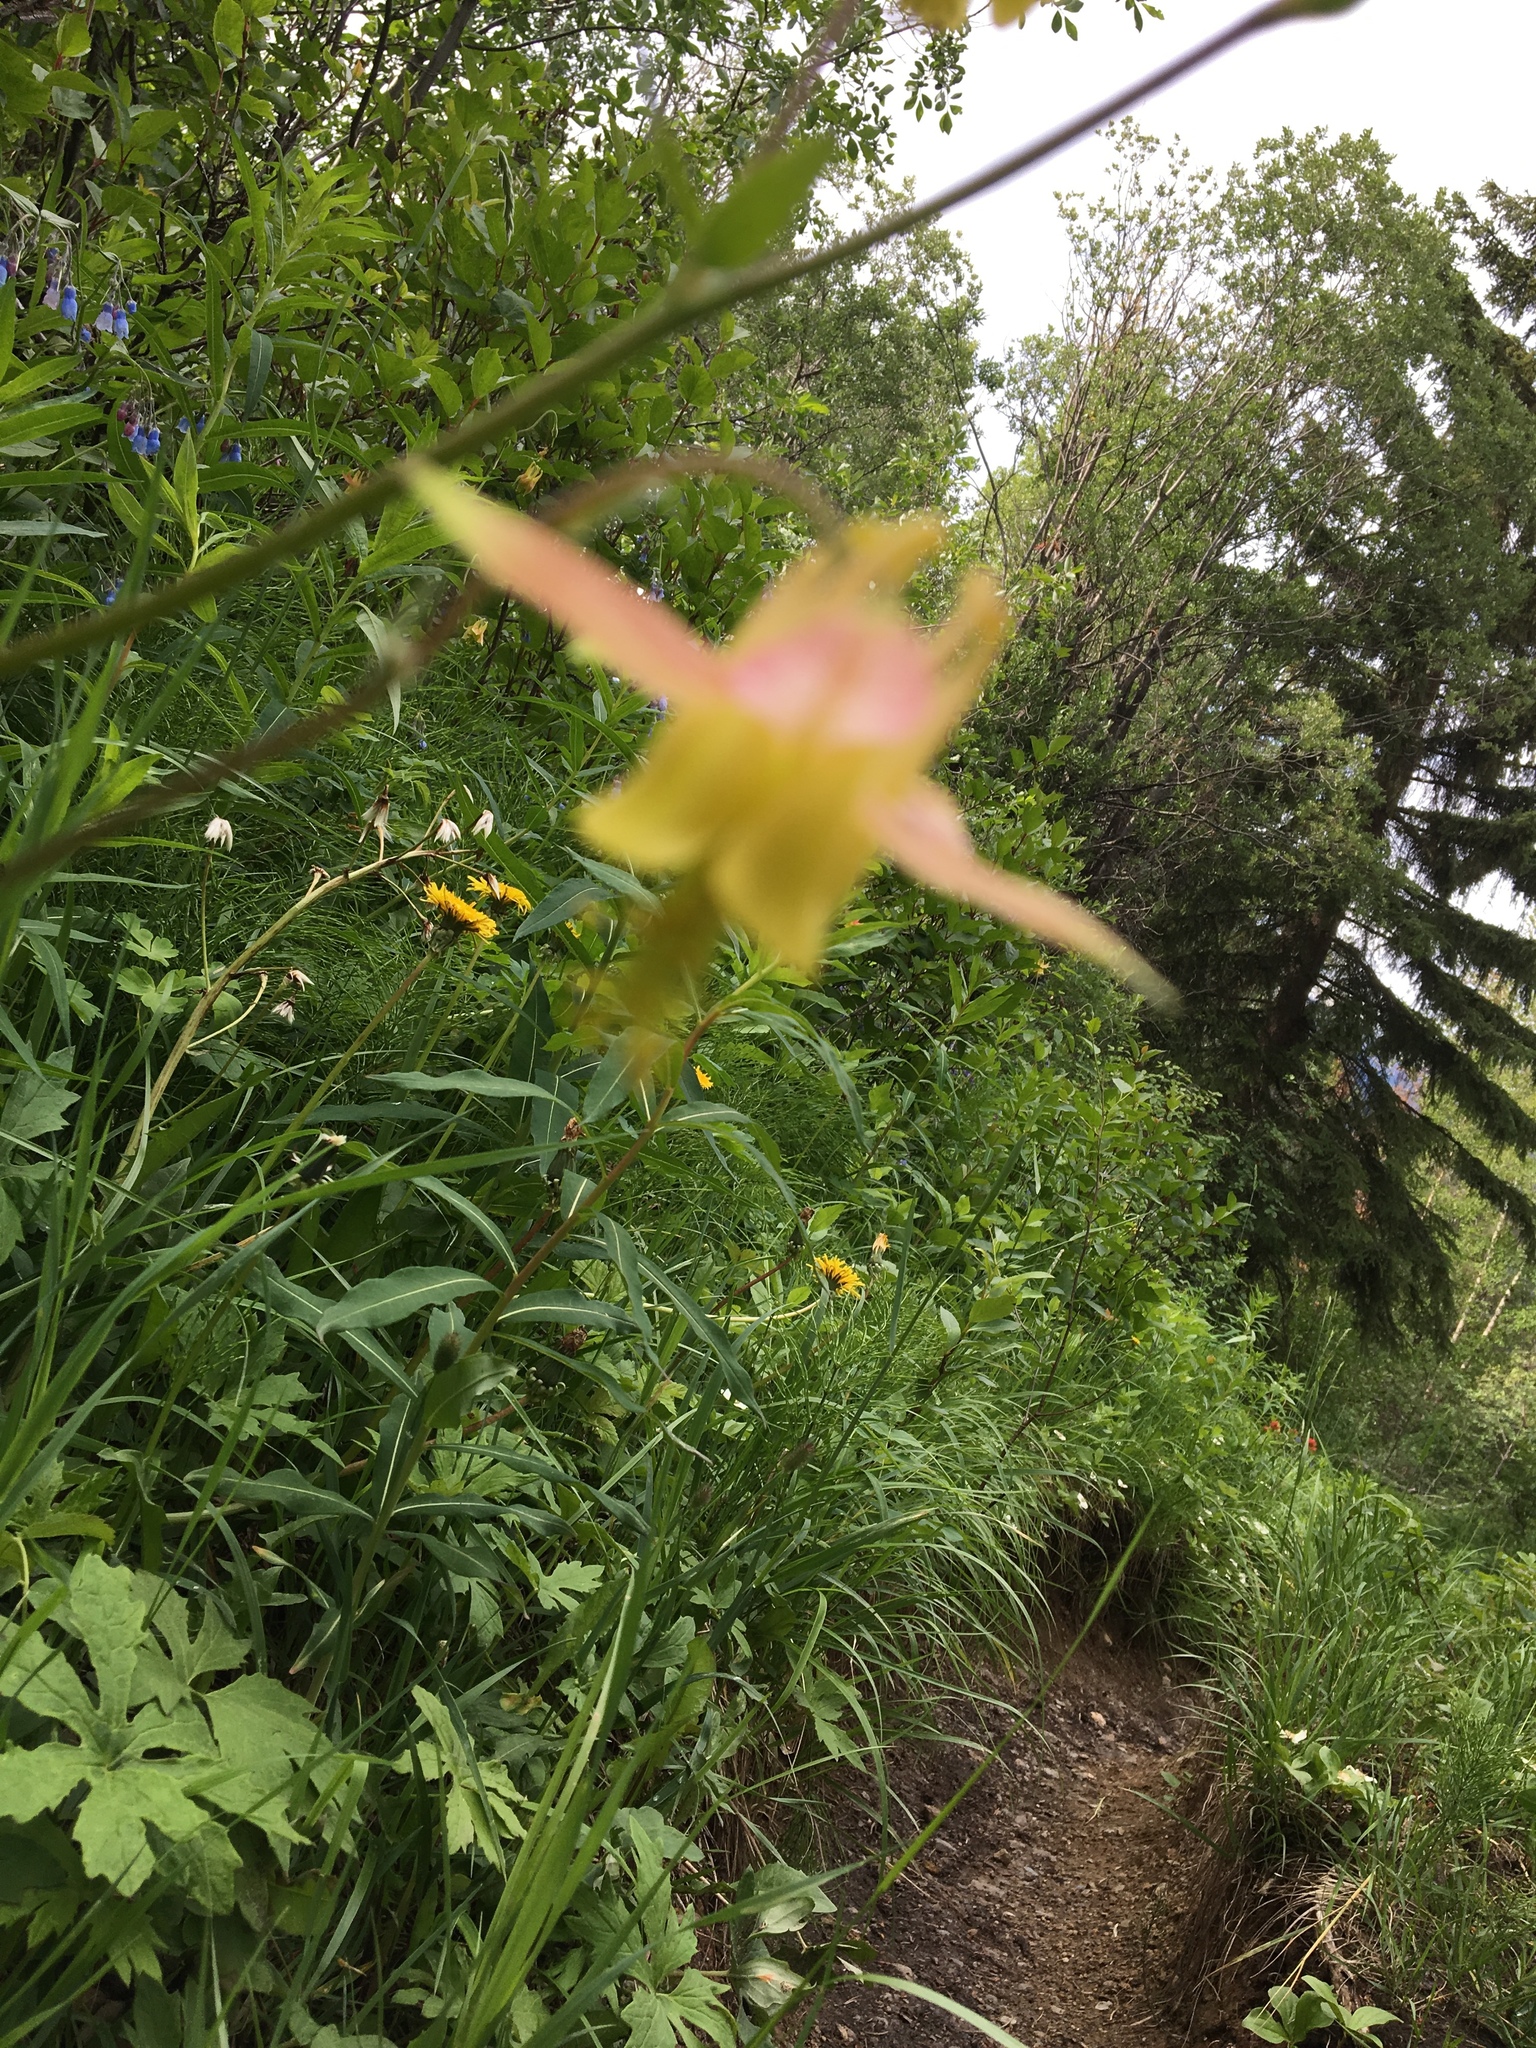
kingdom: Plantae
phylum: Tracheophyta
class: Magnoliopsida
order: Ranunculales
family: Ranunculaceae
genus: Aquilegia
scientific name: Aquilegia flavescens
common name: Yellow columbine
